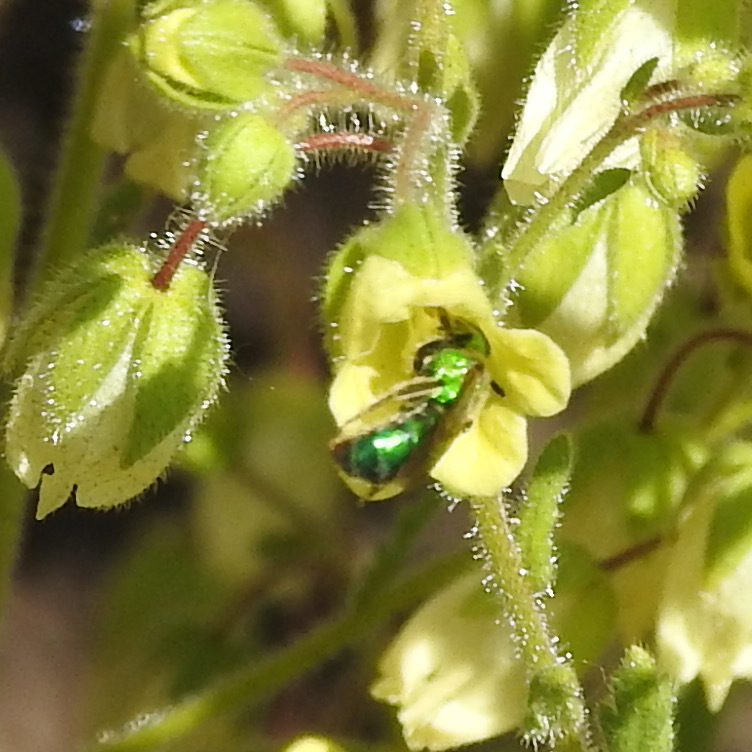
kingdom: Plantae
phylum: Tracheophyta
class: Magnoliopsida
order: Boraginales
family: Hydrophyllaceae
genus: Emmenanthe
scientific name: Emmenanthe penduliflora
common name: Whispering-bells
